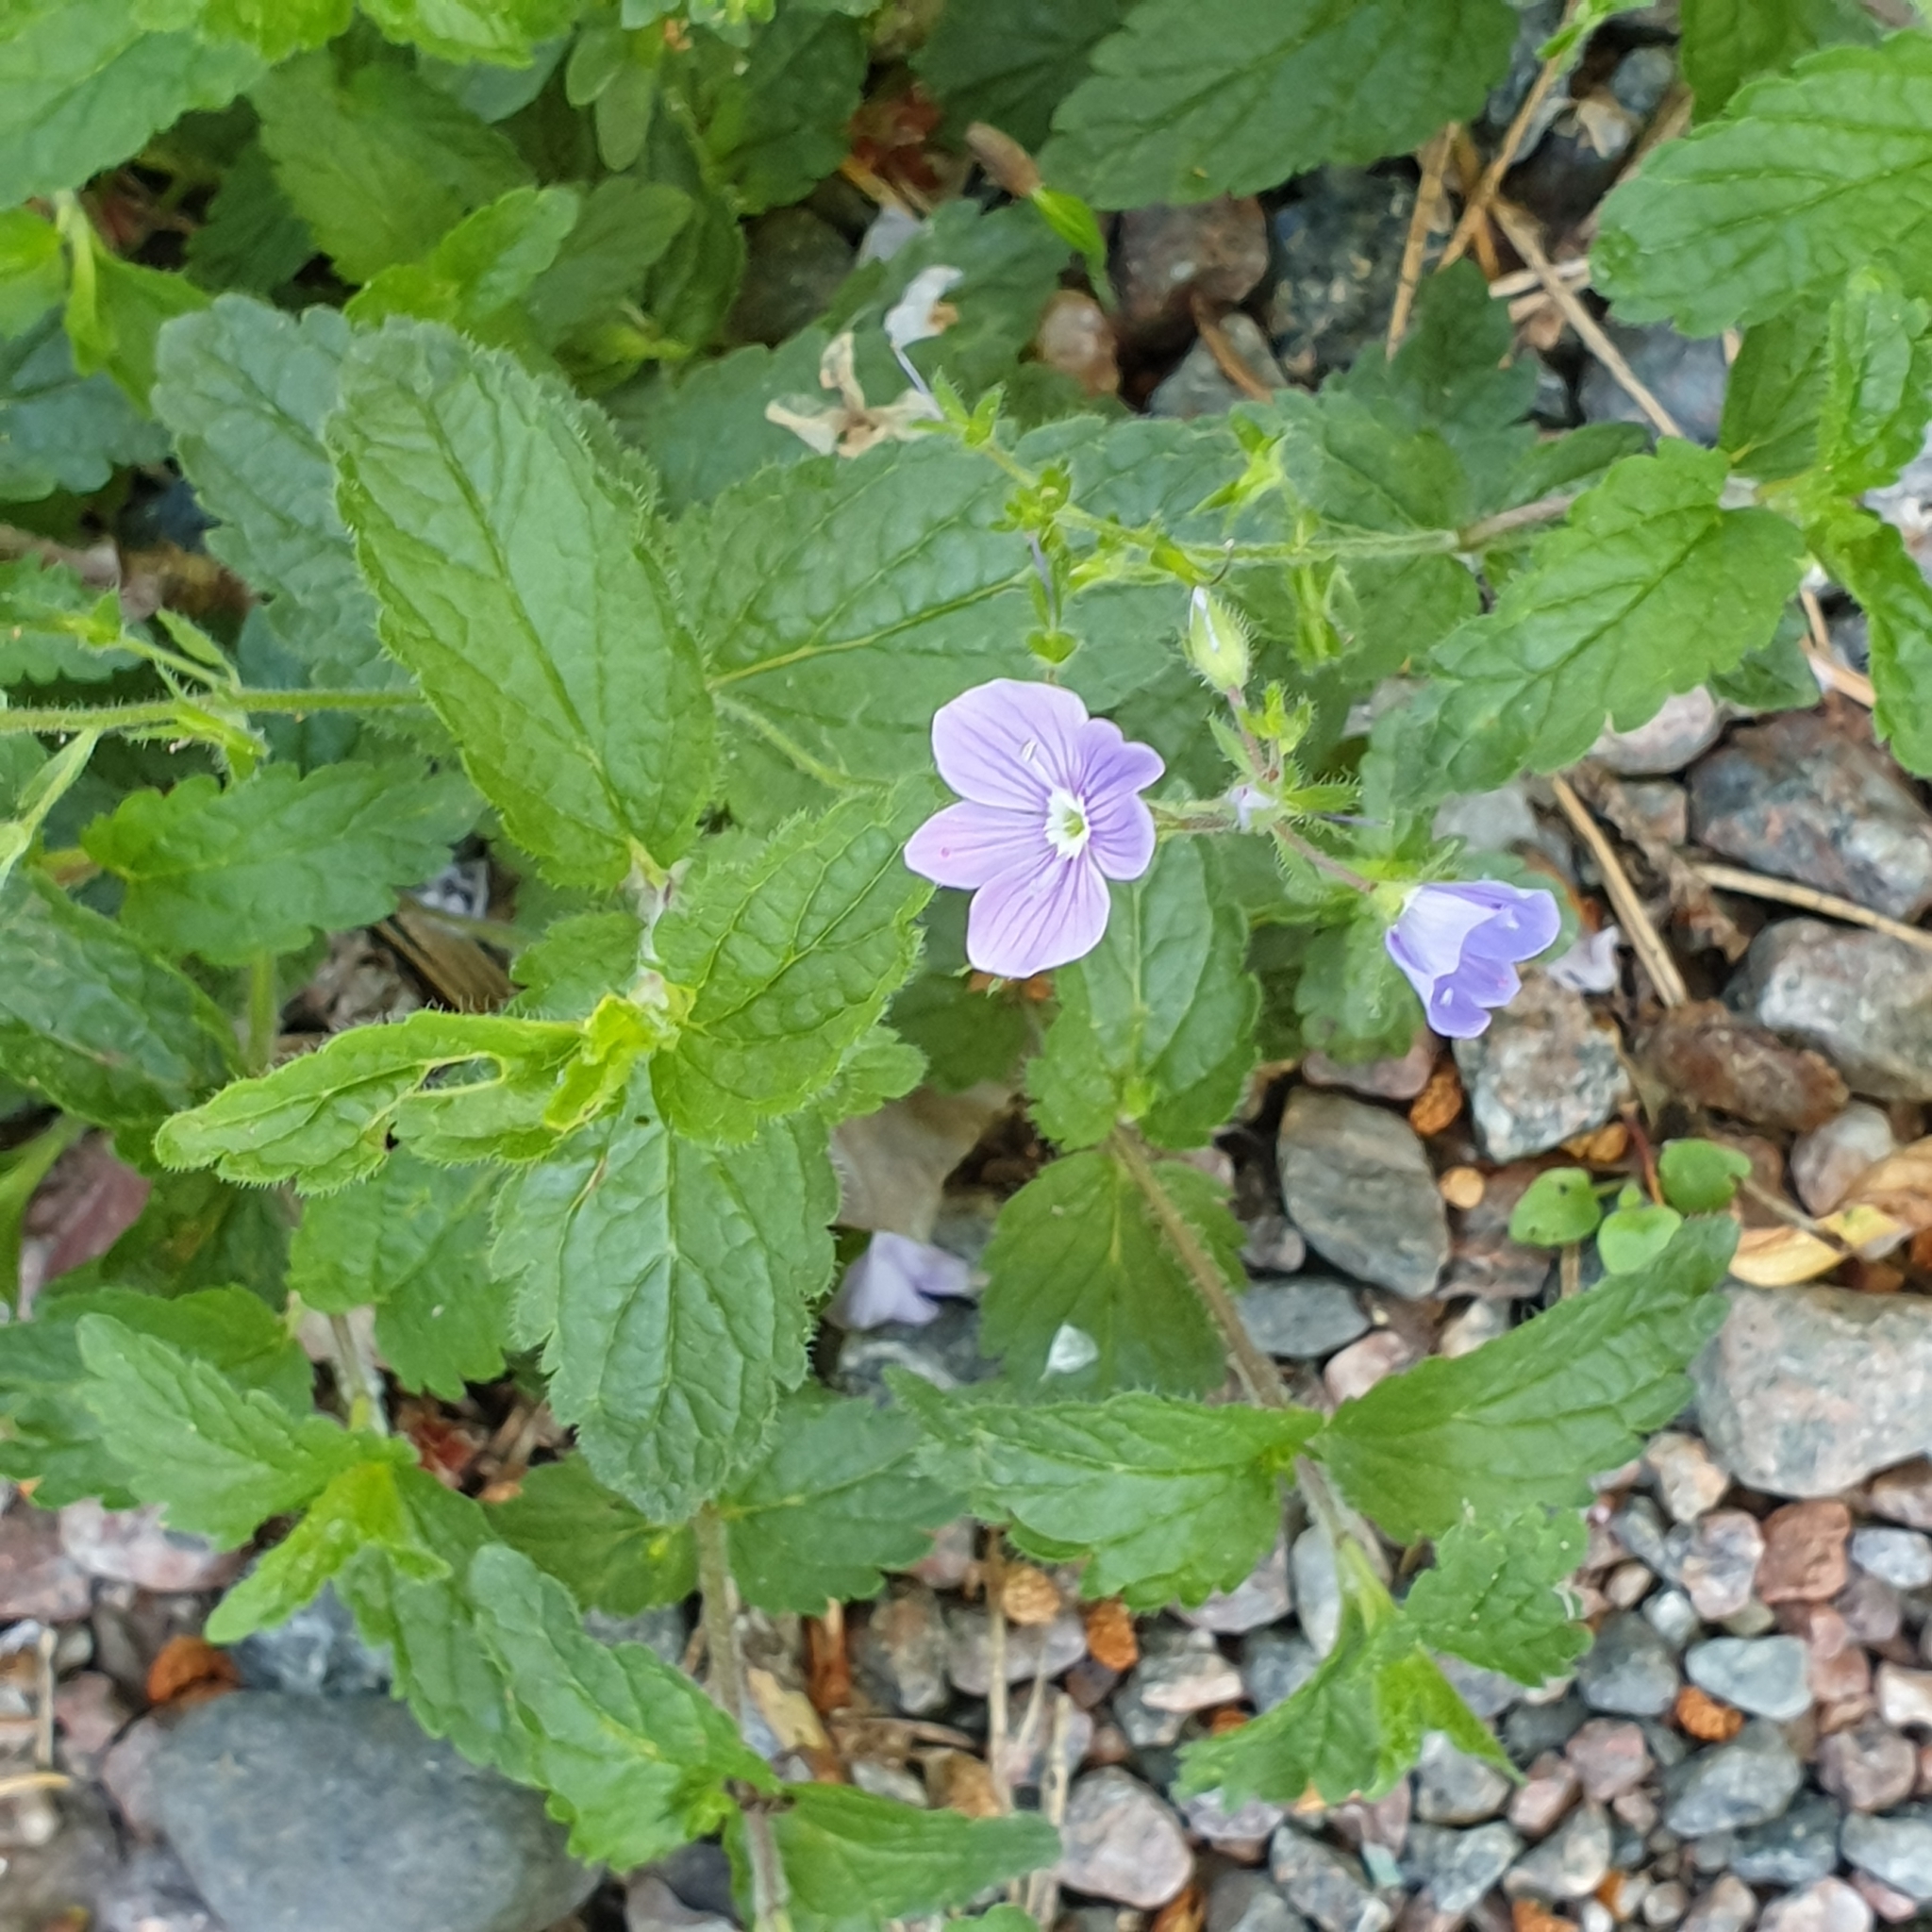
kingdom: Plantae
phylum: Tracheophyta
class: Magnoliopsida
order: Lamiales
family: Plantaginaceae
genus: Veronica
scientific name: Veronica chamaedrys
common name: Germander speedwell
